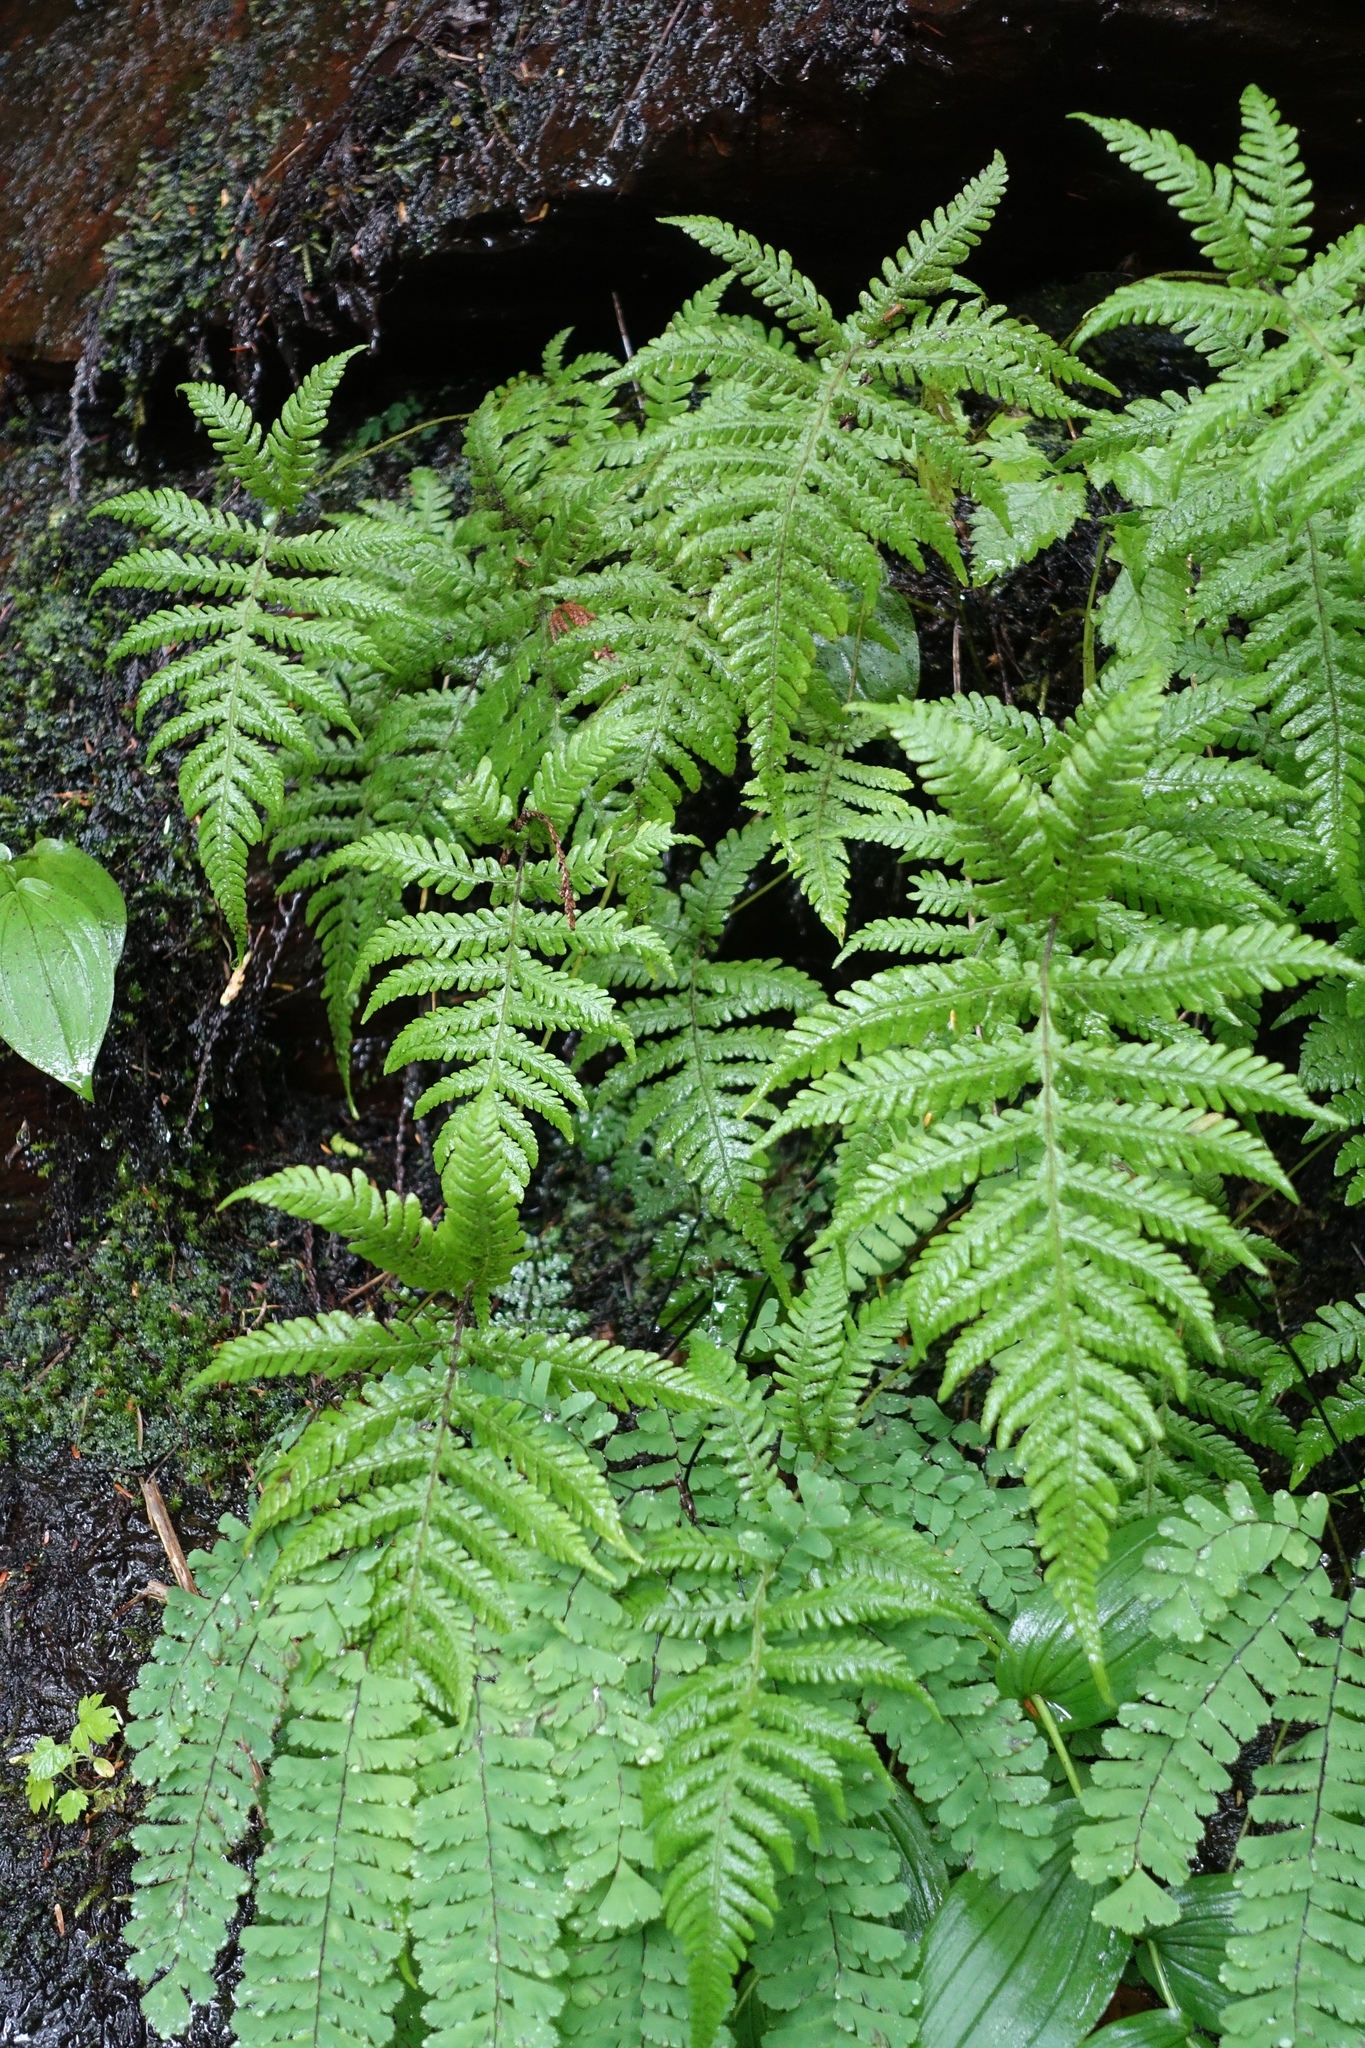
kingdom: Plantae
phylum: Tracheophyta
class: Polypodiopsida
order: Polypodiales
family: Thelypteridaceae
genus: Phegopteris
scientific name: Phegopteris connectilis
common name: Beech fern
